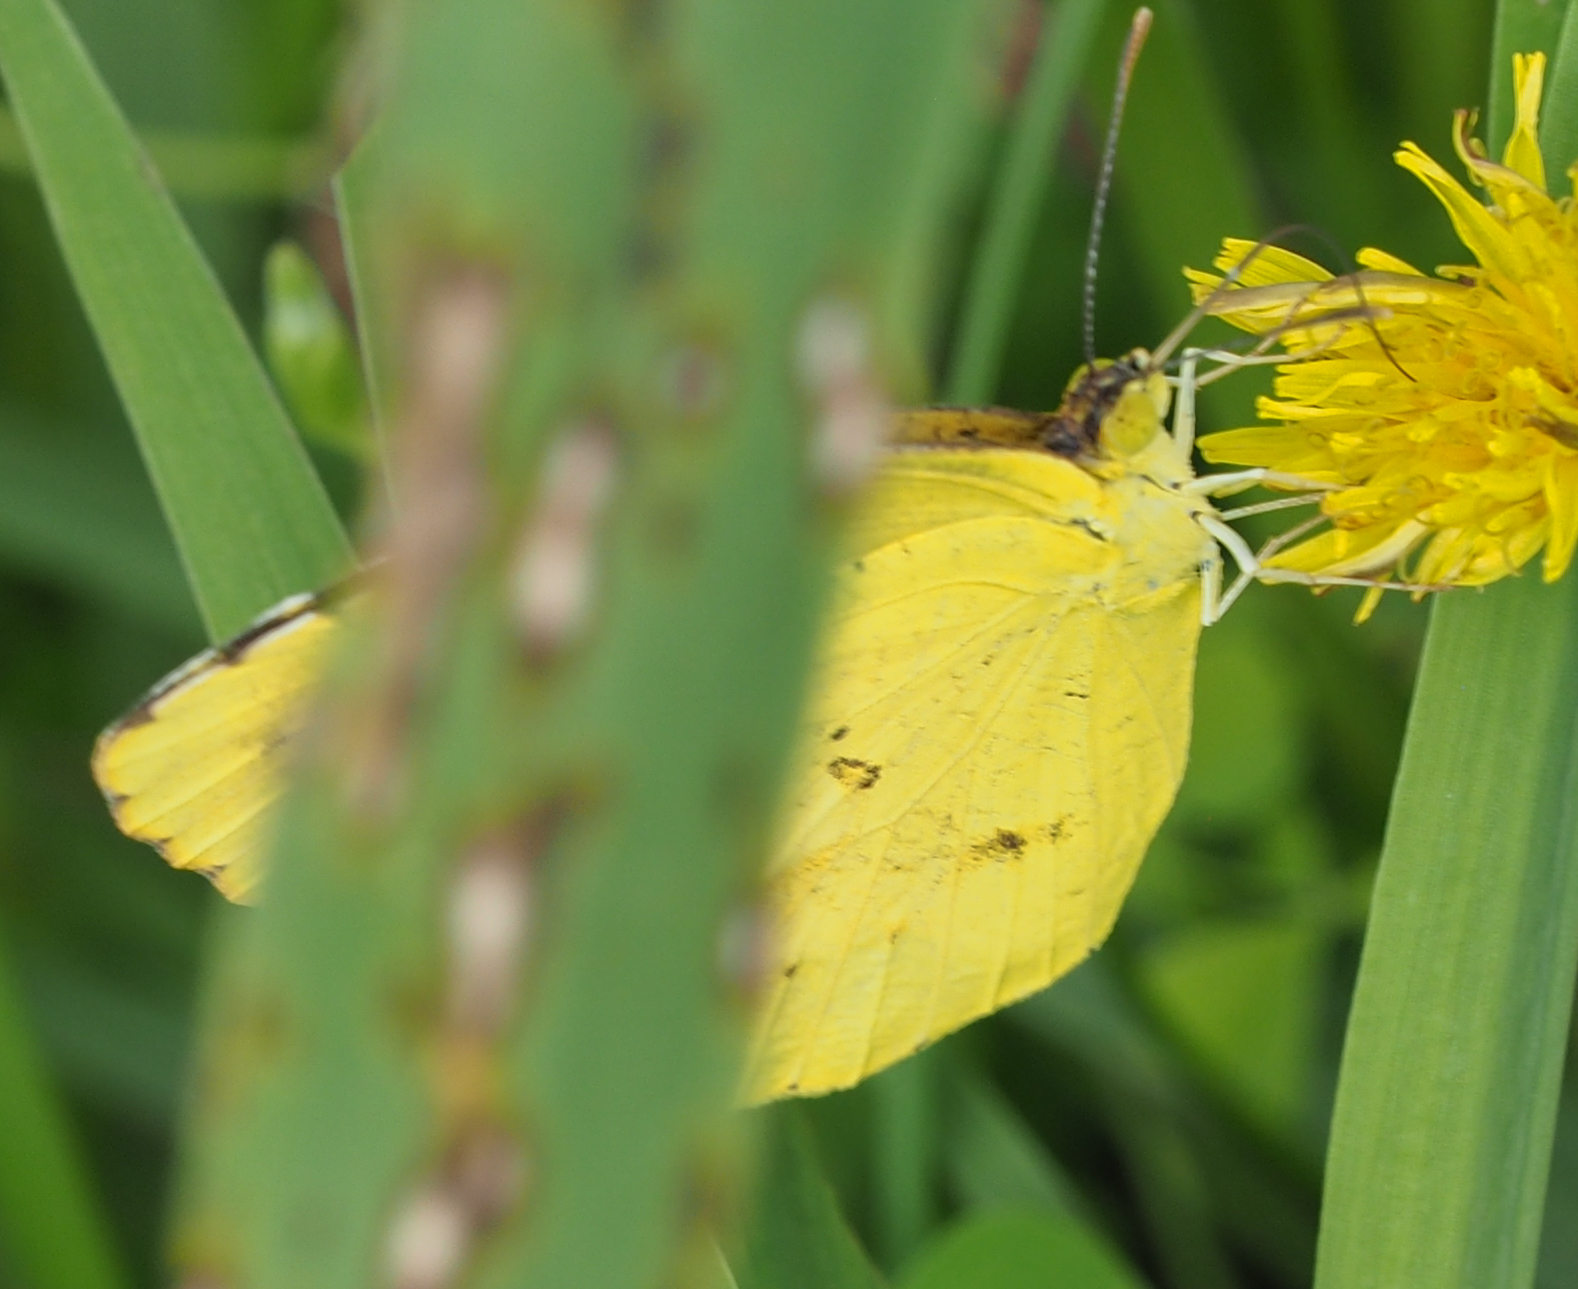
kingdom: Animalia
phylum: Arthropoda
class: Insecta
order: Lepidoptera
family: Pieridae
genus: Abaeis
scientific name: Abaeis nicippe
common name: Sleepy orange
